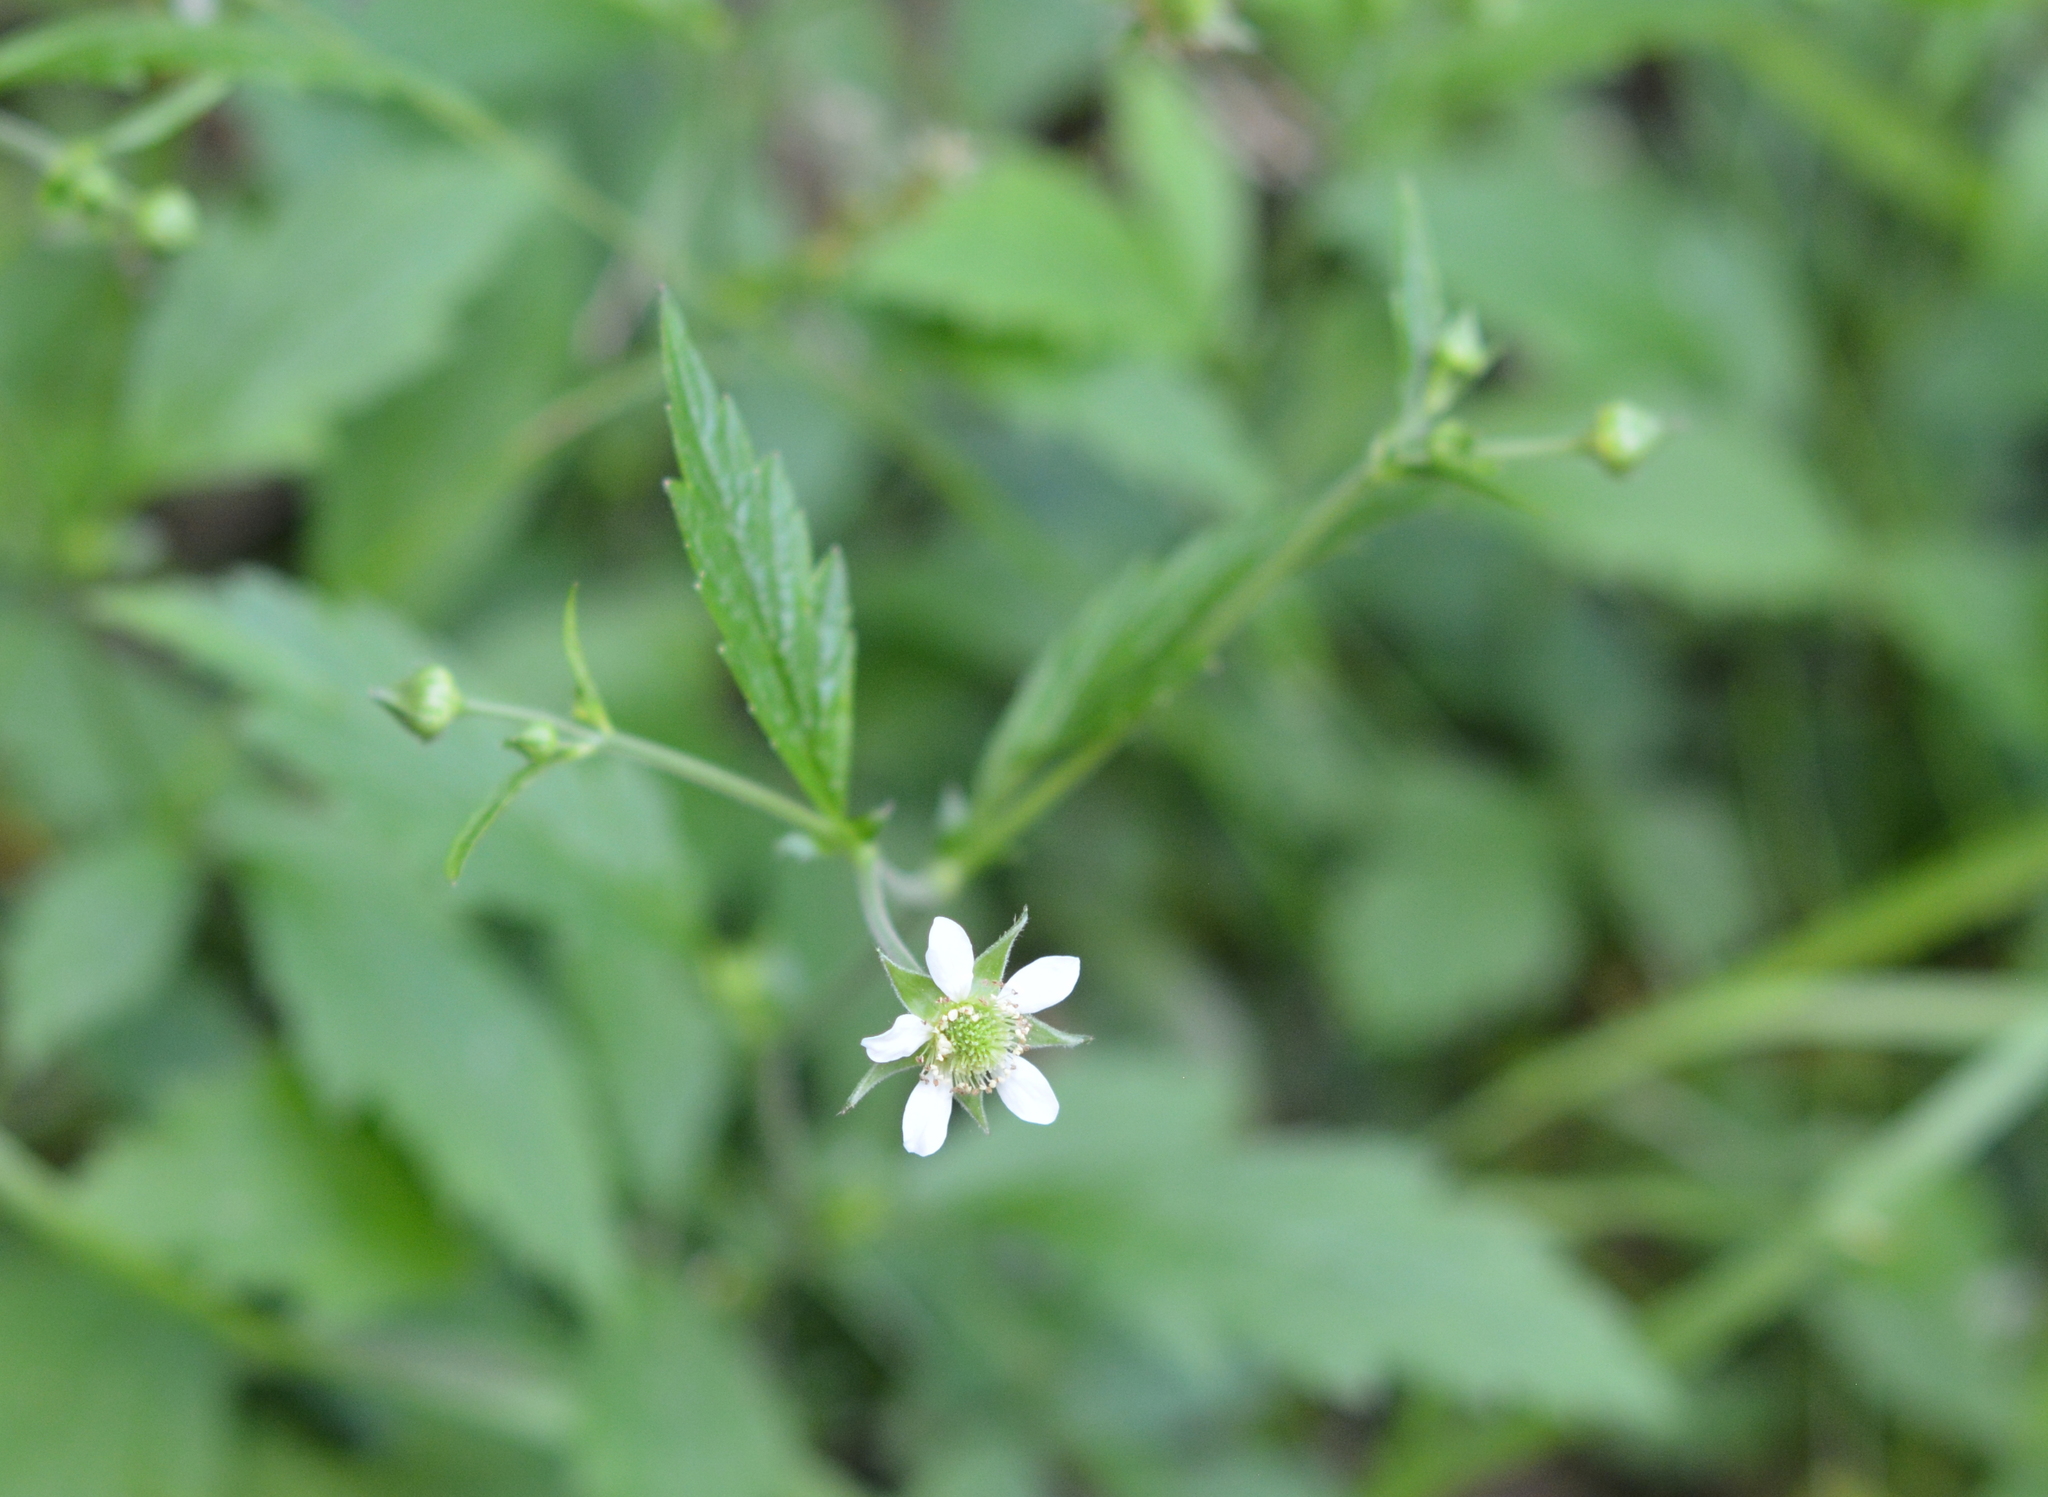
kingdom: Plantae
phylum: Tracheophyta
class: Magnoliopsida
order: Rosales
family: Rosaceae
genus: Geum
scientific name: Geum canadense
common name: White avens
